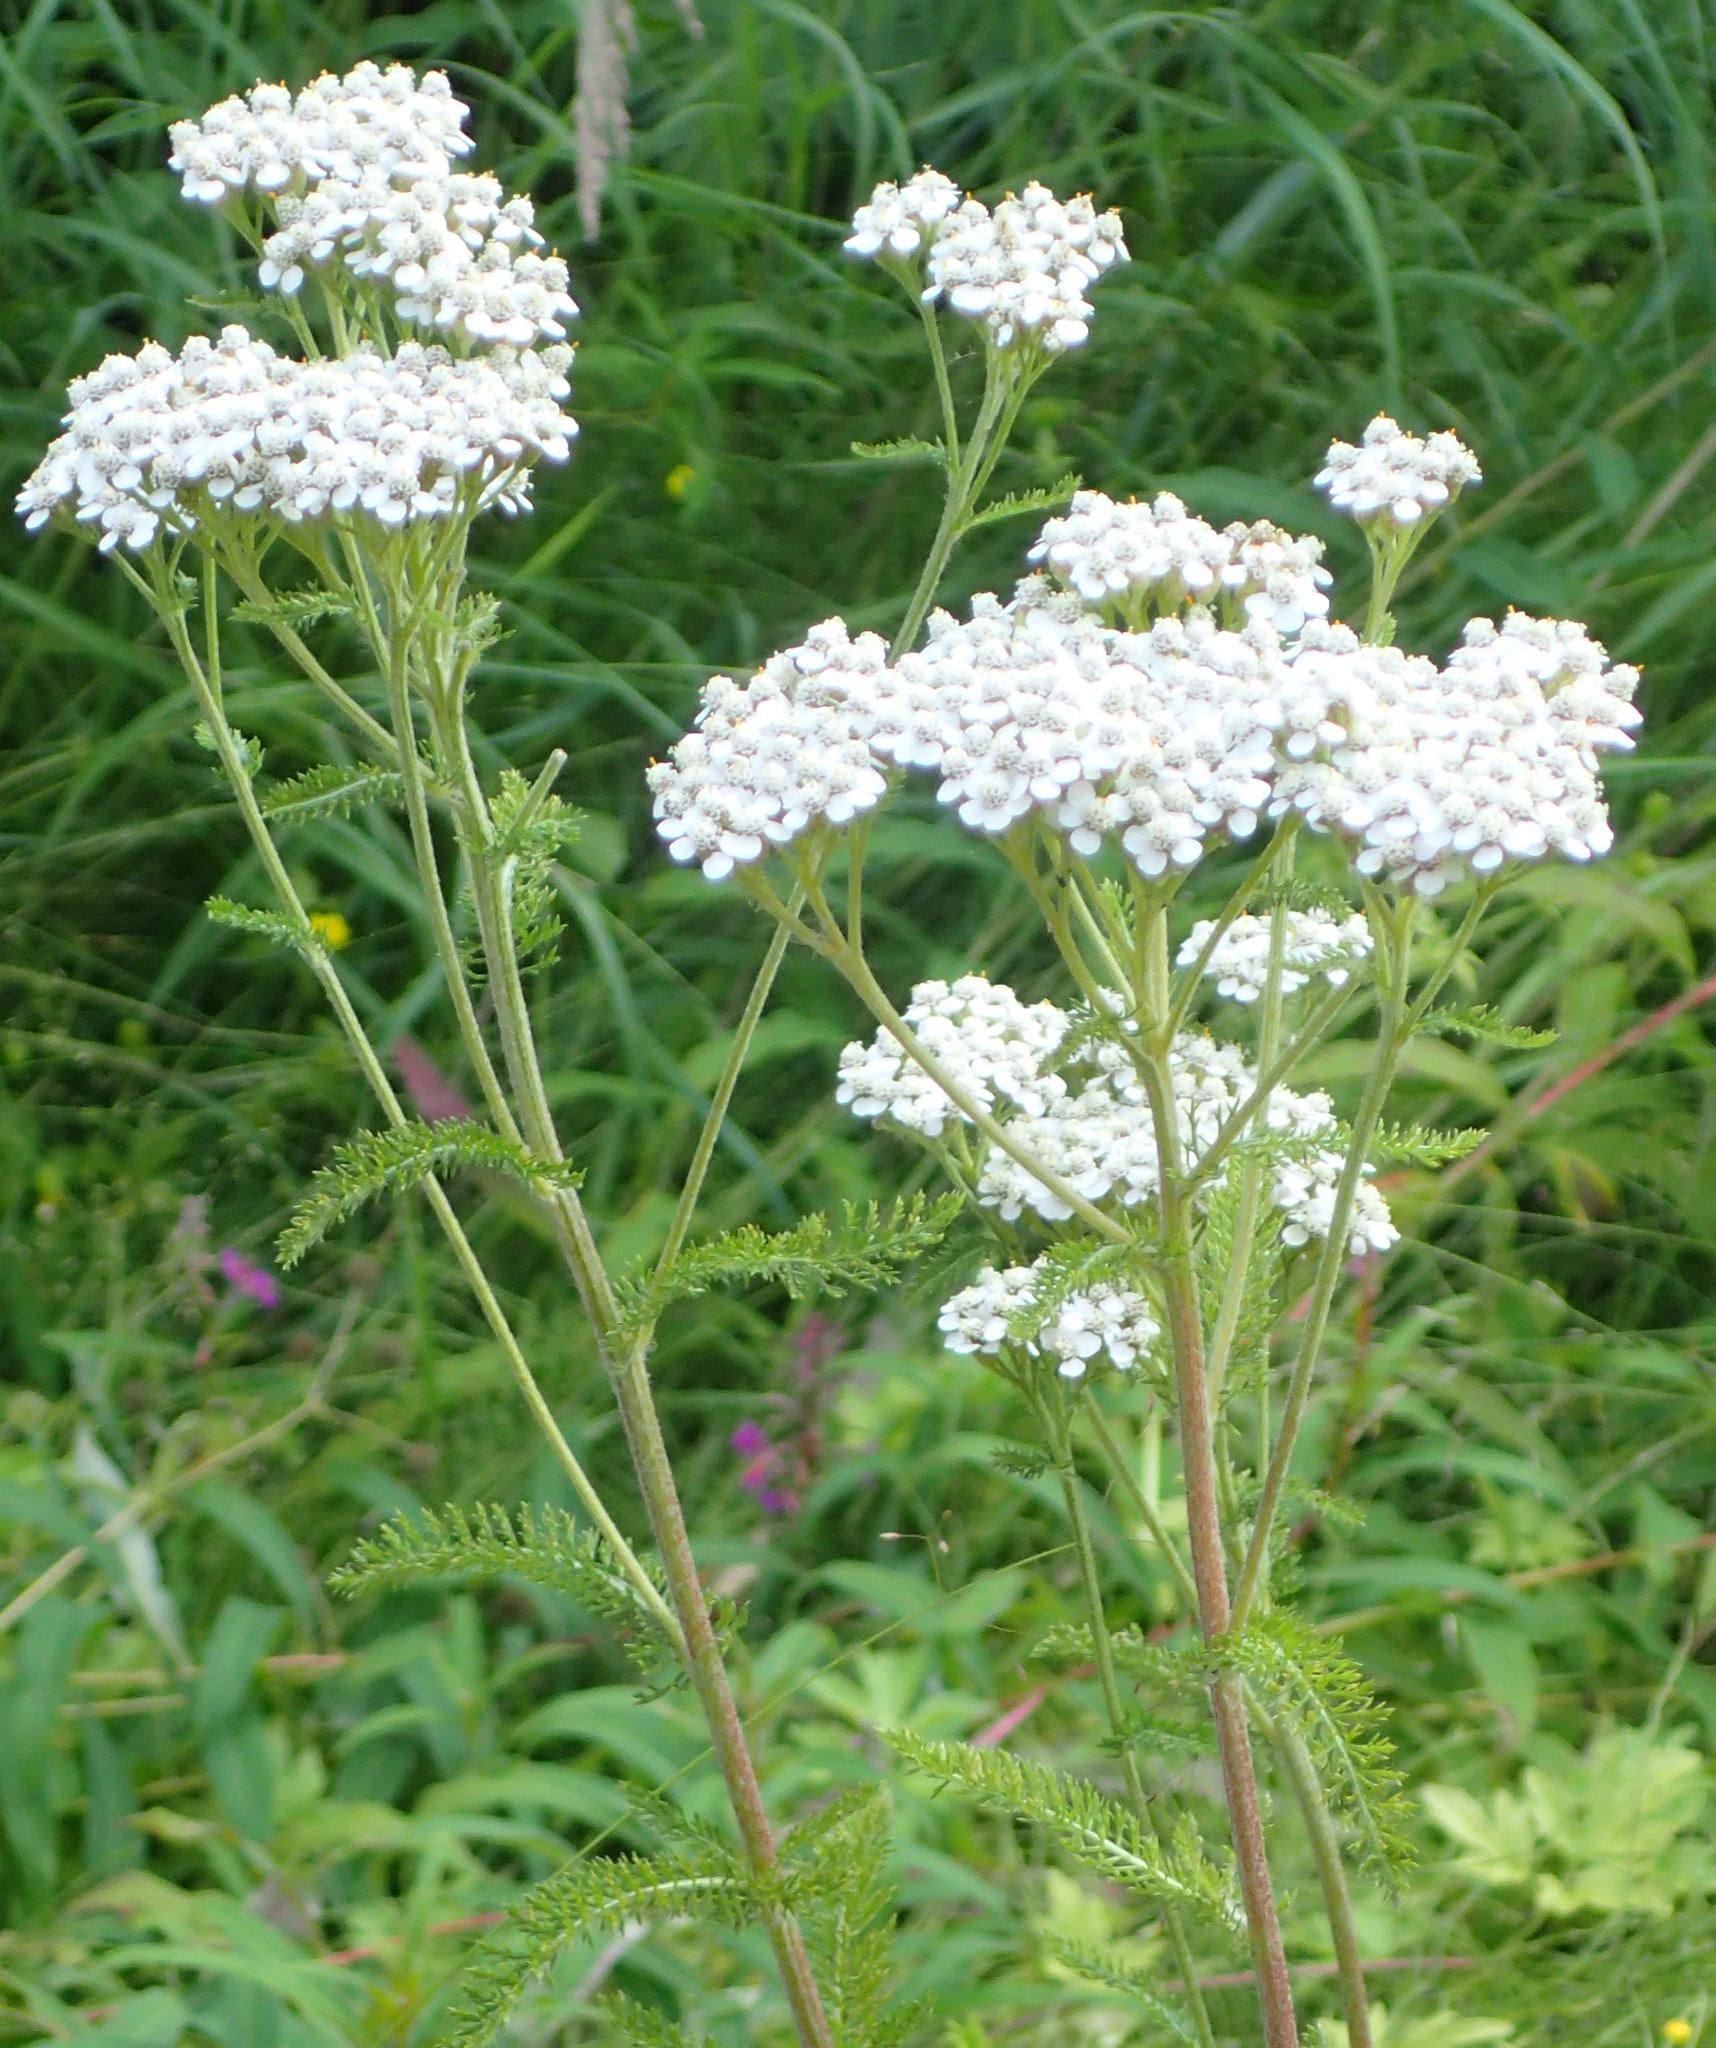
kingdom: Plantae
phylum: Tracheophyta
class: Magnoliopsida
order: Asterales
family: Asteraceae
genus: Achillea
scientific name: Achillea millefolium
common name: Yarrow
